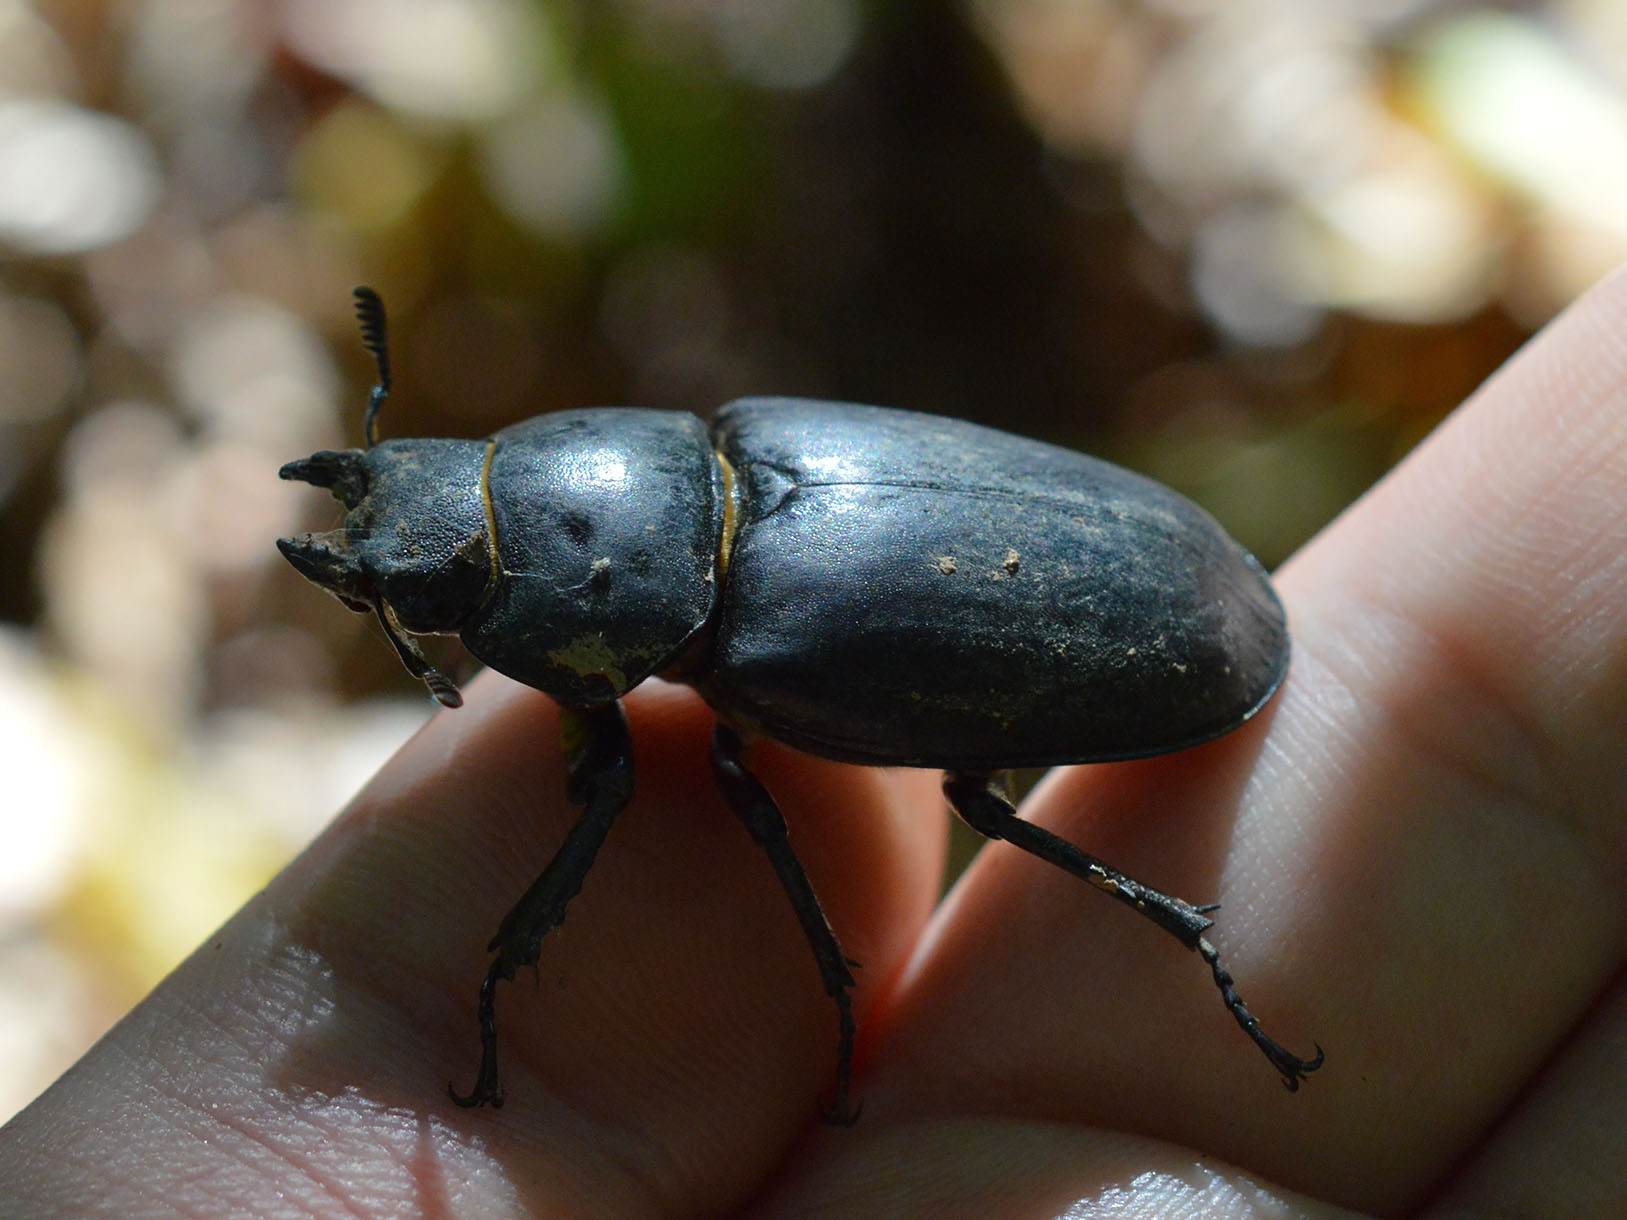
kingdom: Animalia
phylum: Arthropoda
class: Insecta
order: Coleoptera
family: Lucanidae
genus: Lucanus
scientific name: Lucanus cervus
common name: Stag beetle
